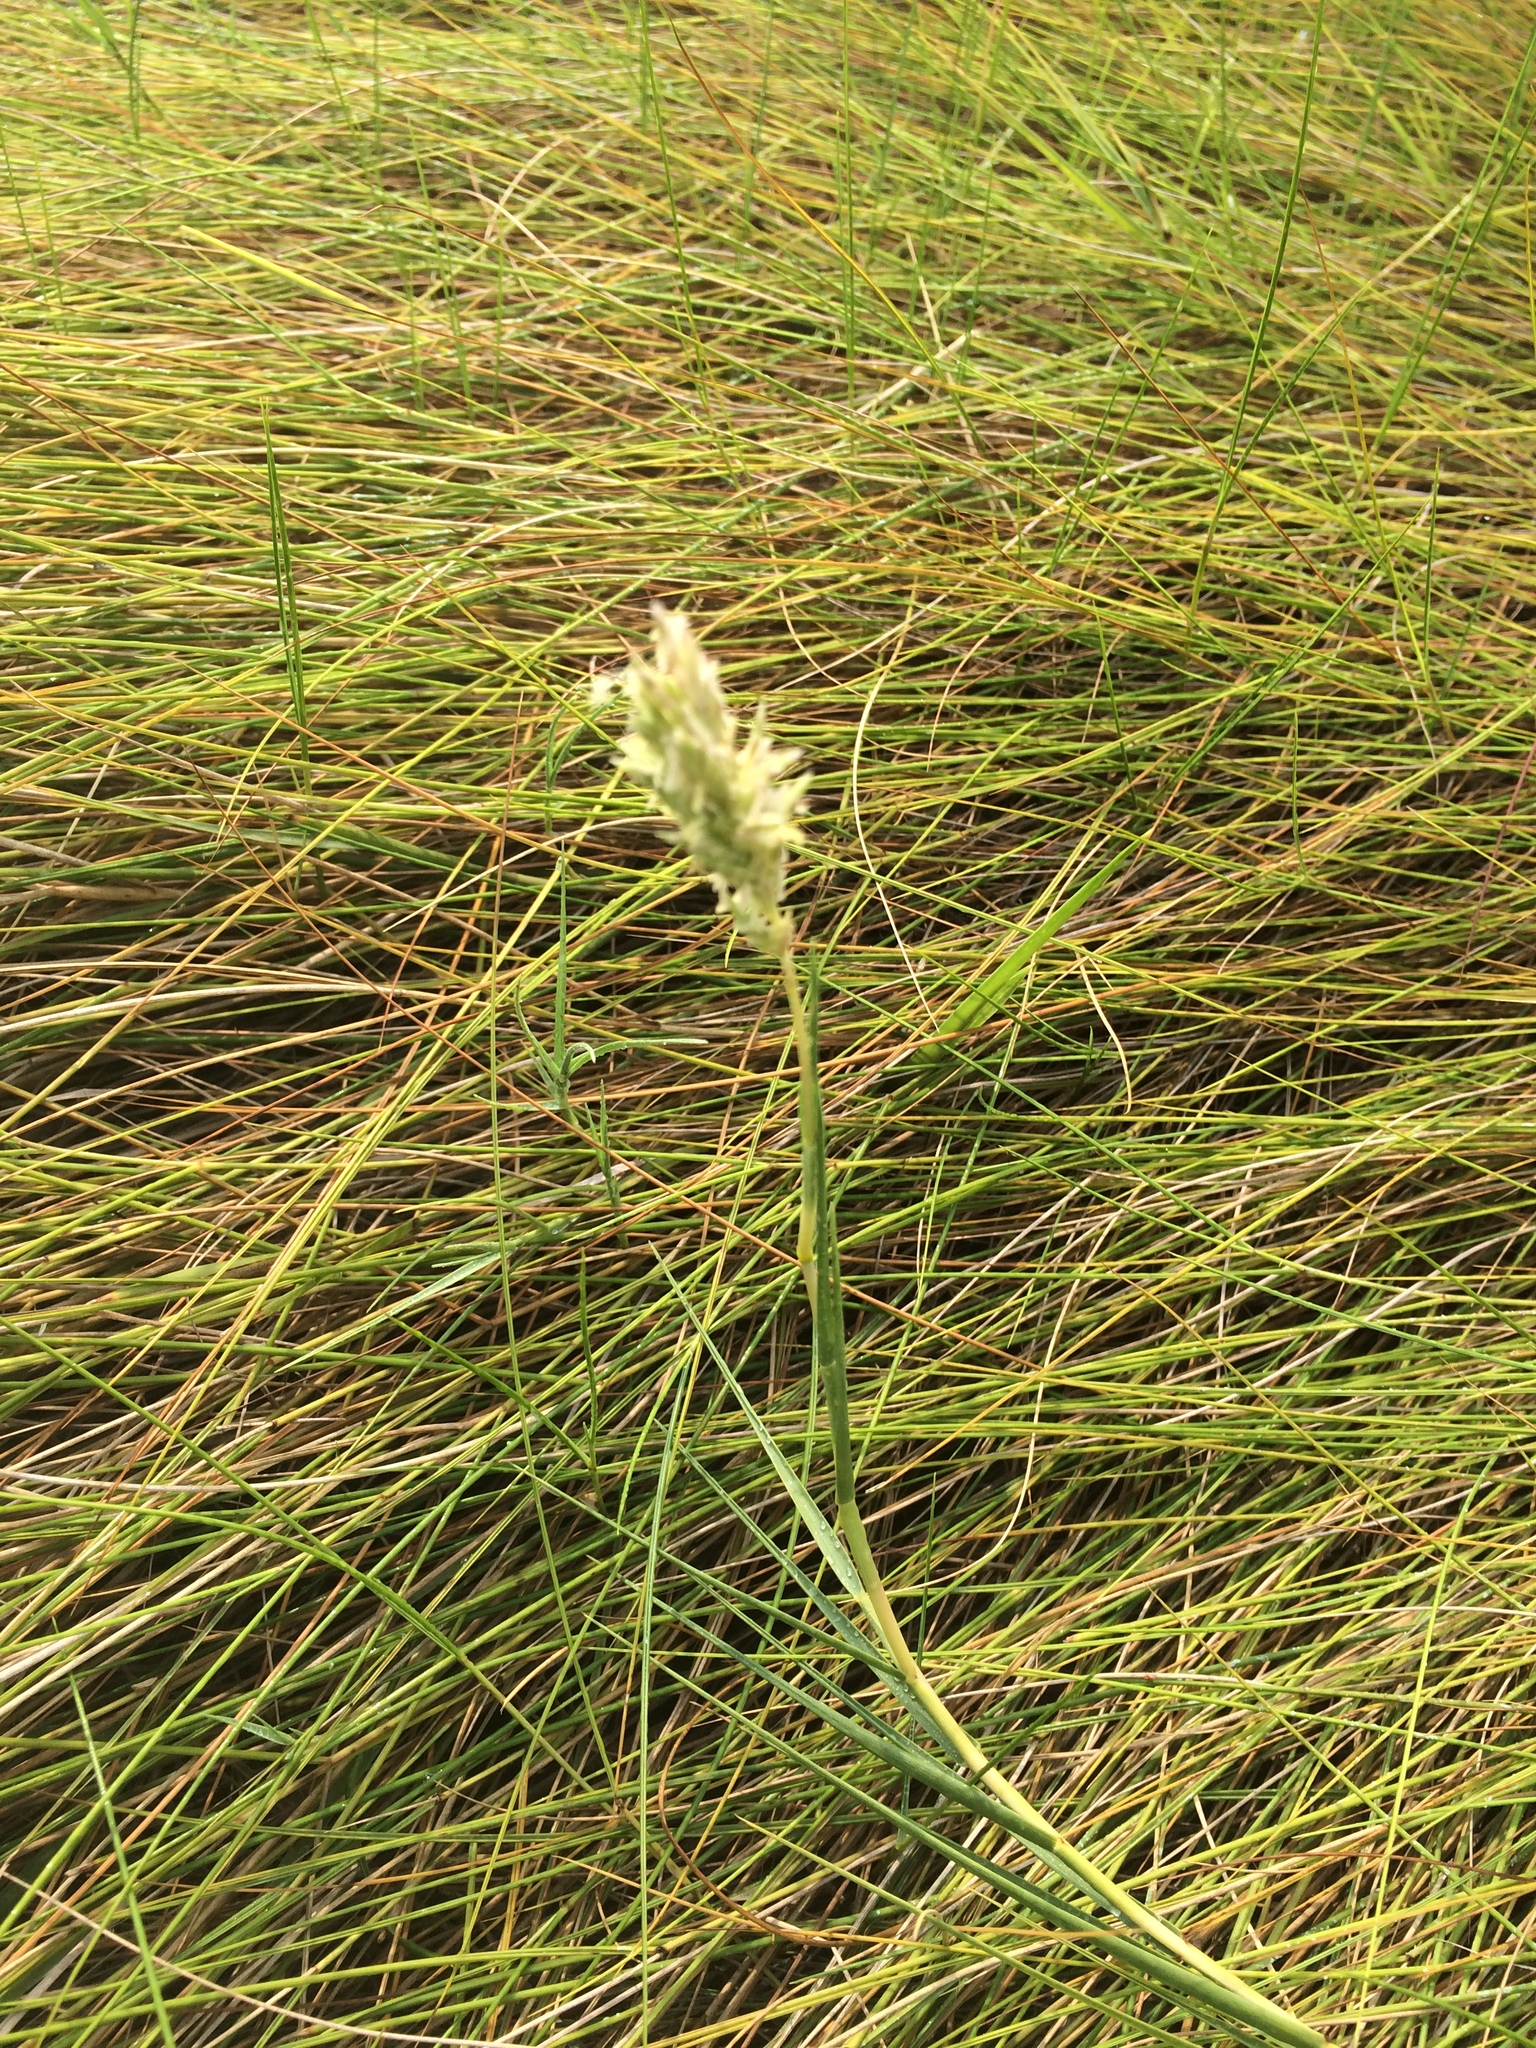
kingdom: Plantae
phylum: Tracheophyta
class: Liliopsida
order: Poales
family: Poaceae
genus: Distichlis
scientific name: Distichlis spicata
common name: Saltgrass
